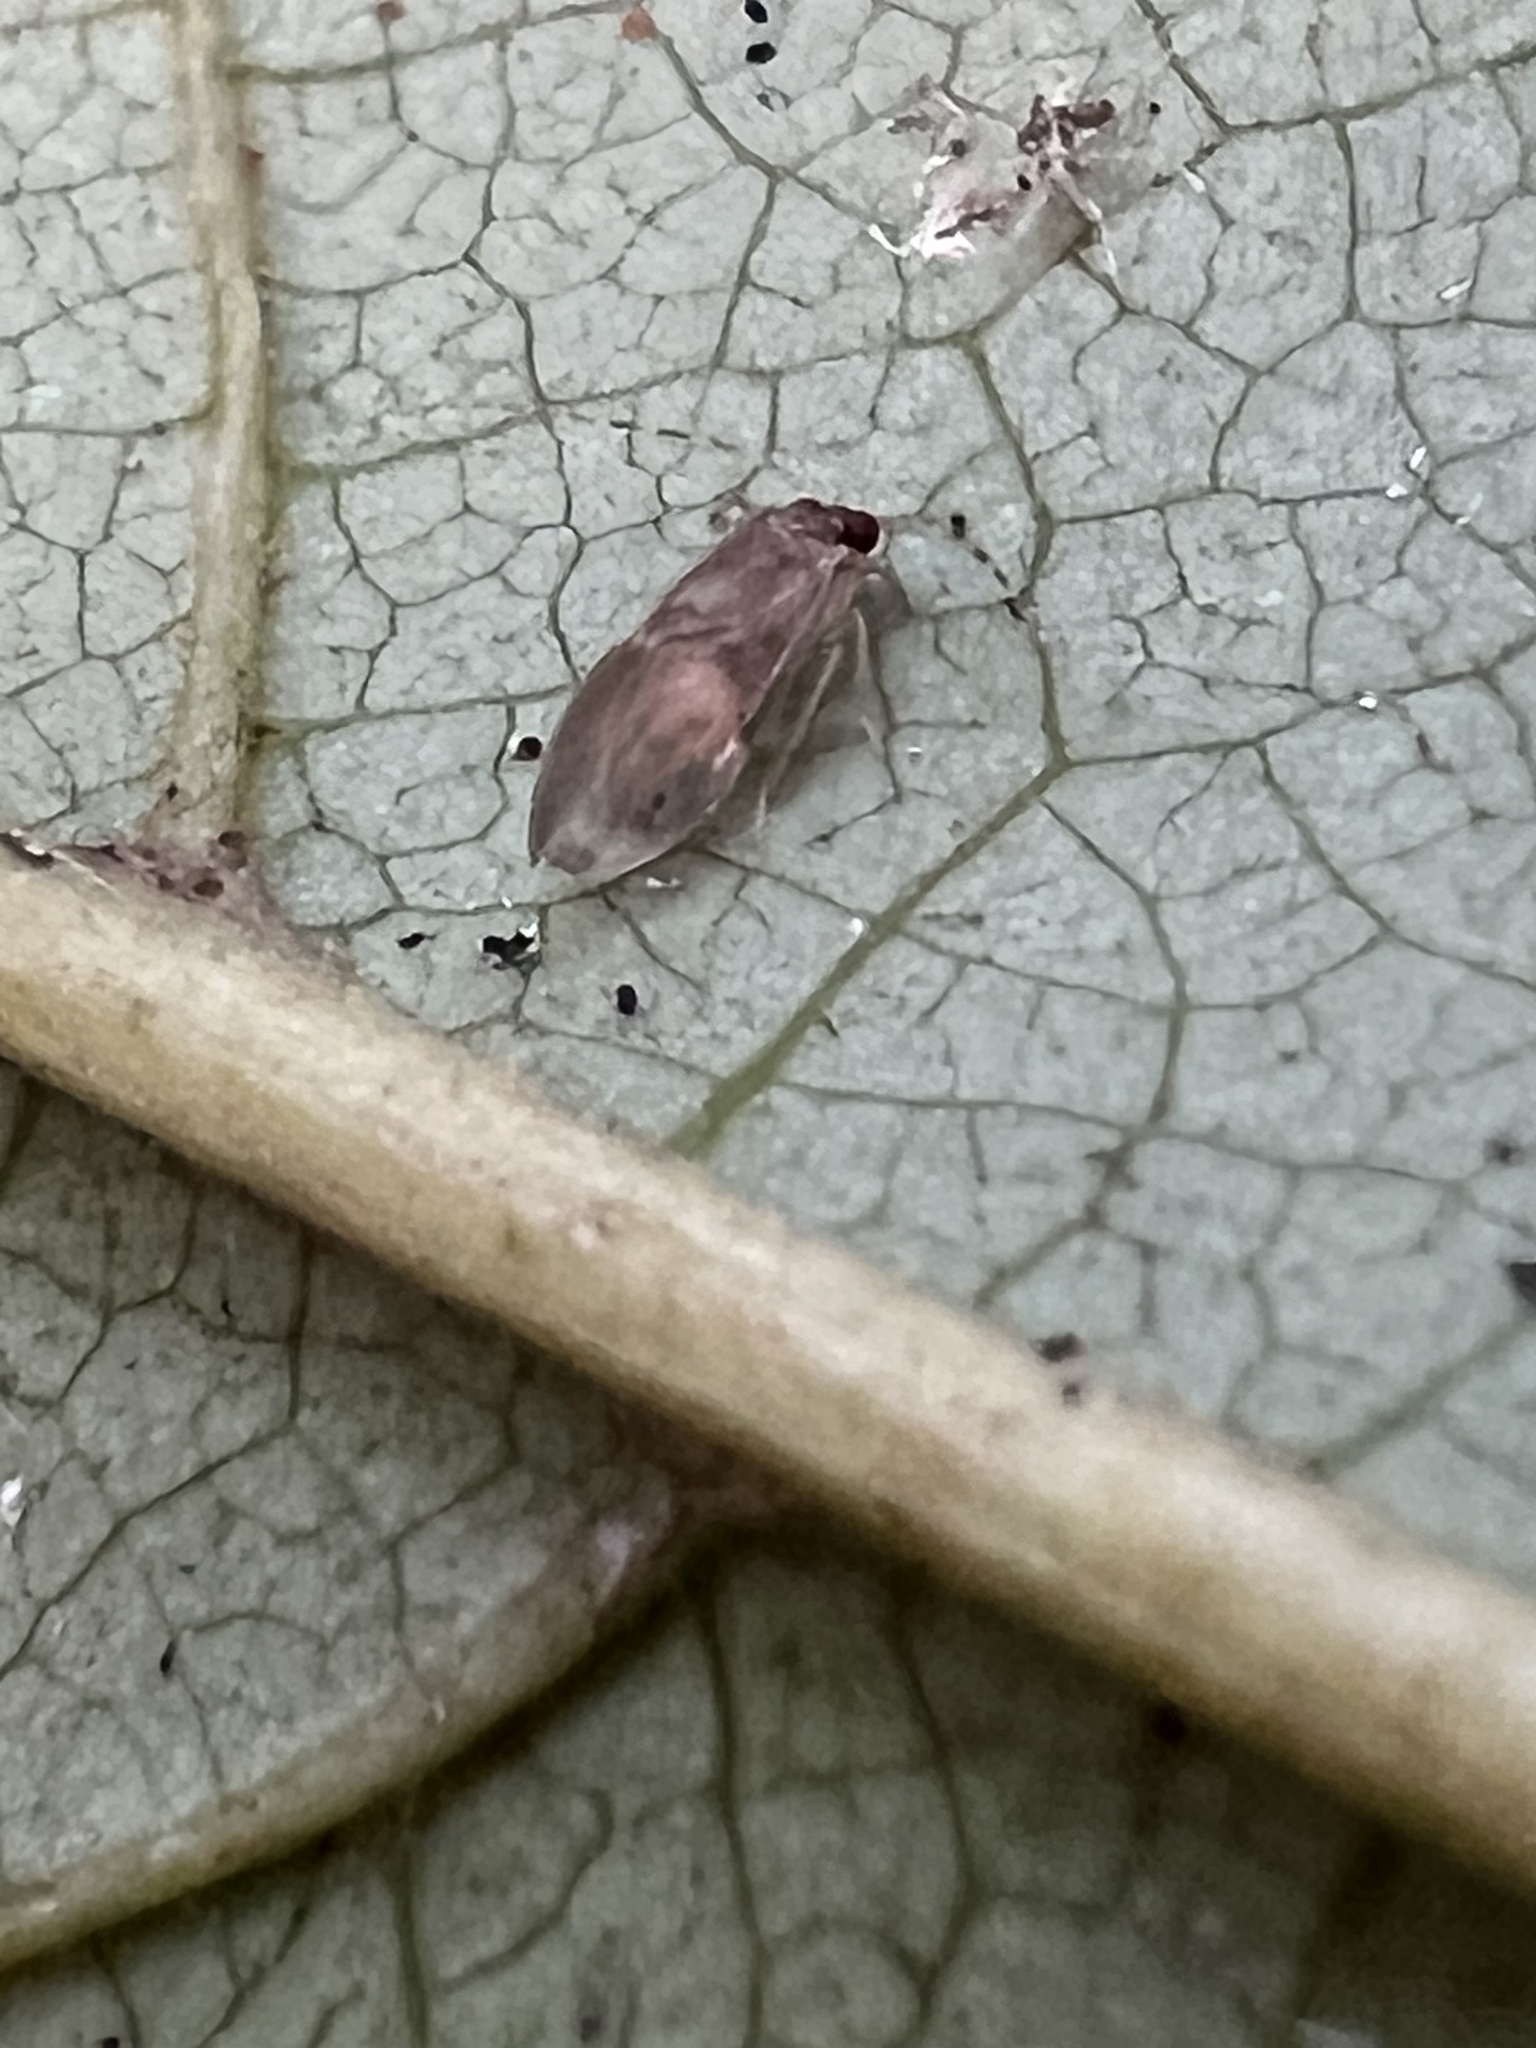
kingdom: Animalia
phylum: Arthropoda
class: Insecta
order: Psocodea
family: Amphipsocidae
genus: Polypsocus
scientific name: Polypsocus corruptus
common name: Corrupt barklouse
